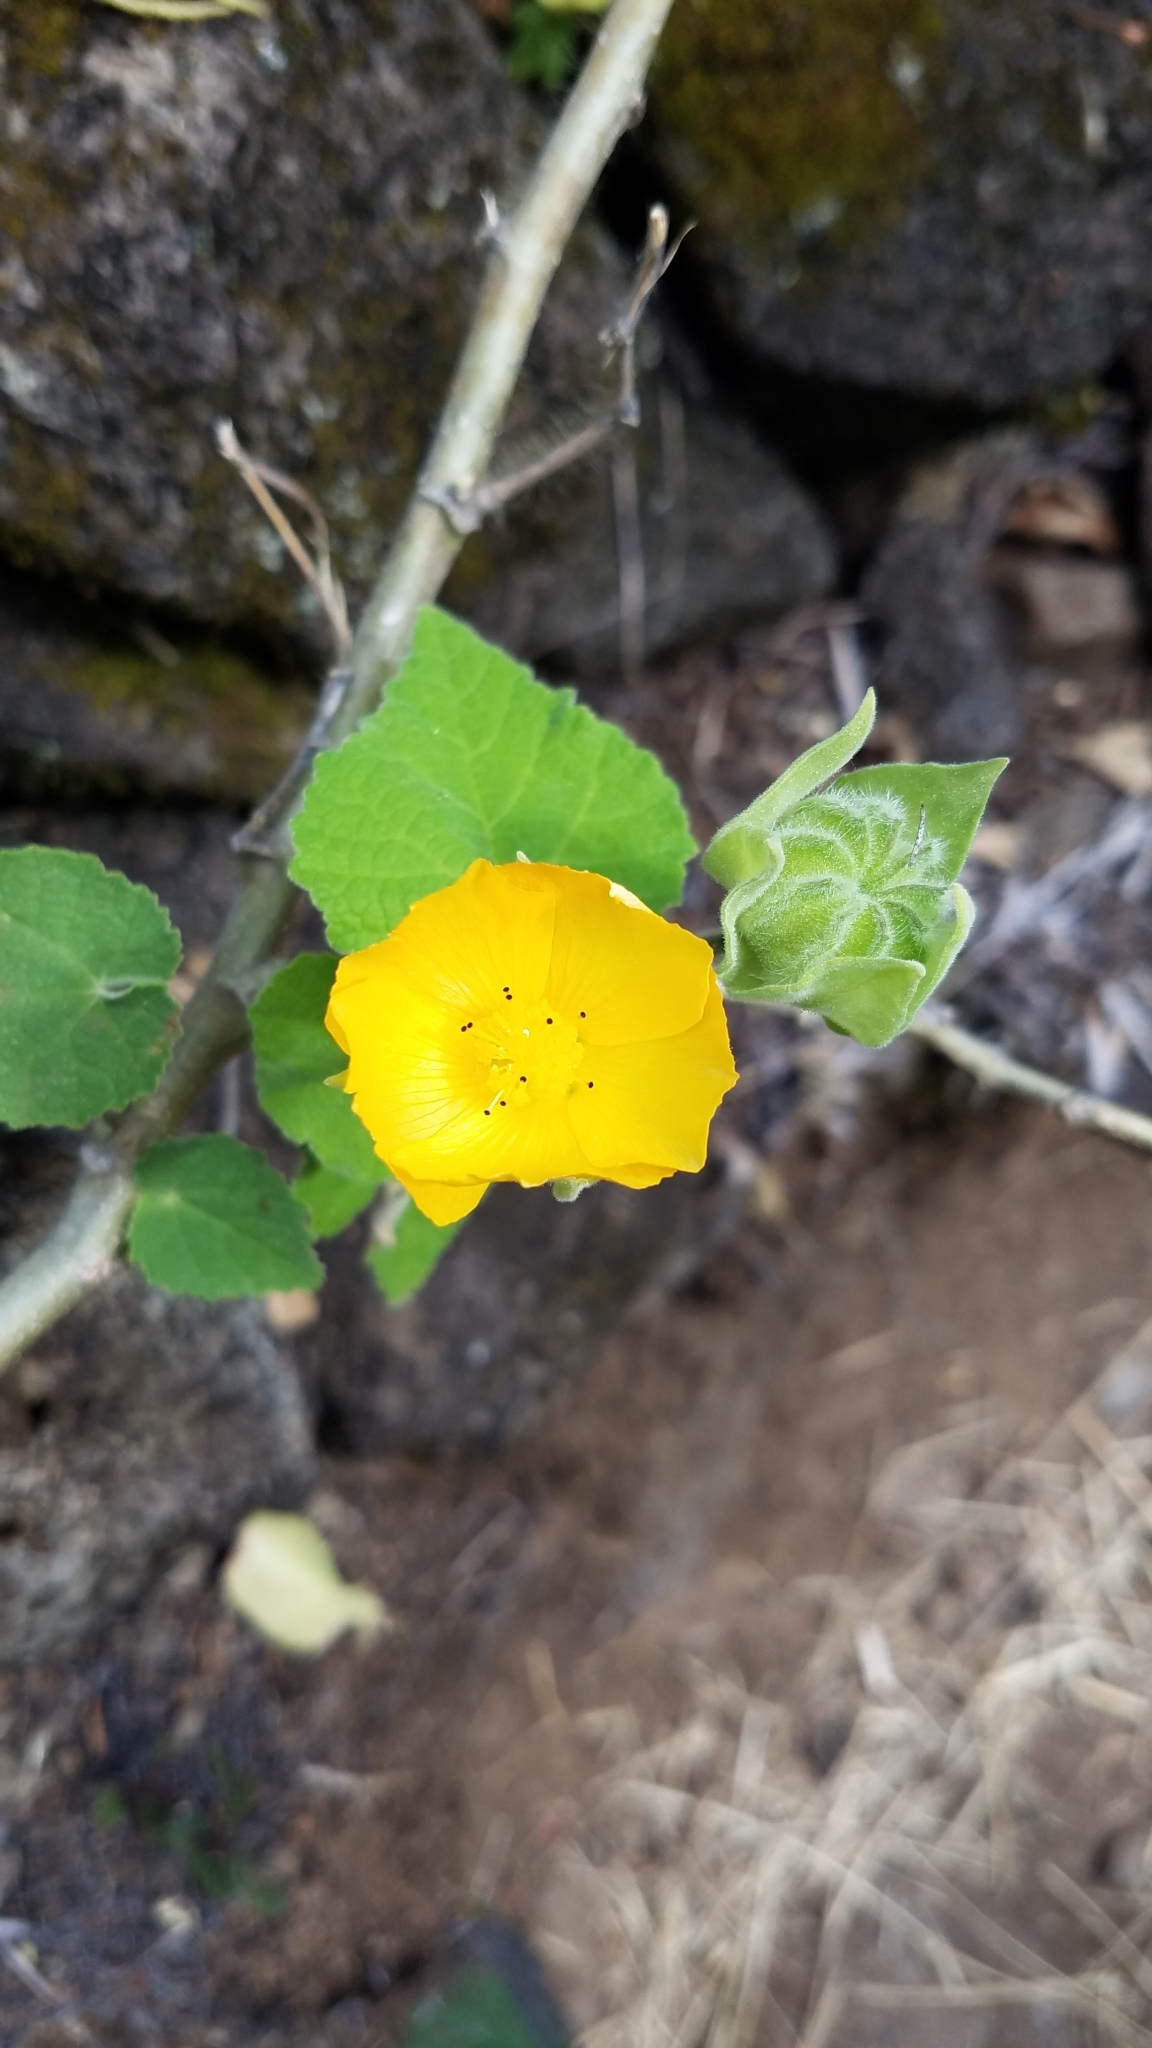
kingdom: Plantae
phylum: Tracheophyta
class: Magnoliopsida
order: Malvales
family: Malvaceae
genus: Abutilon
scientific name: Abutilon grandifolium
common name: Hairy abutilon
